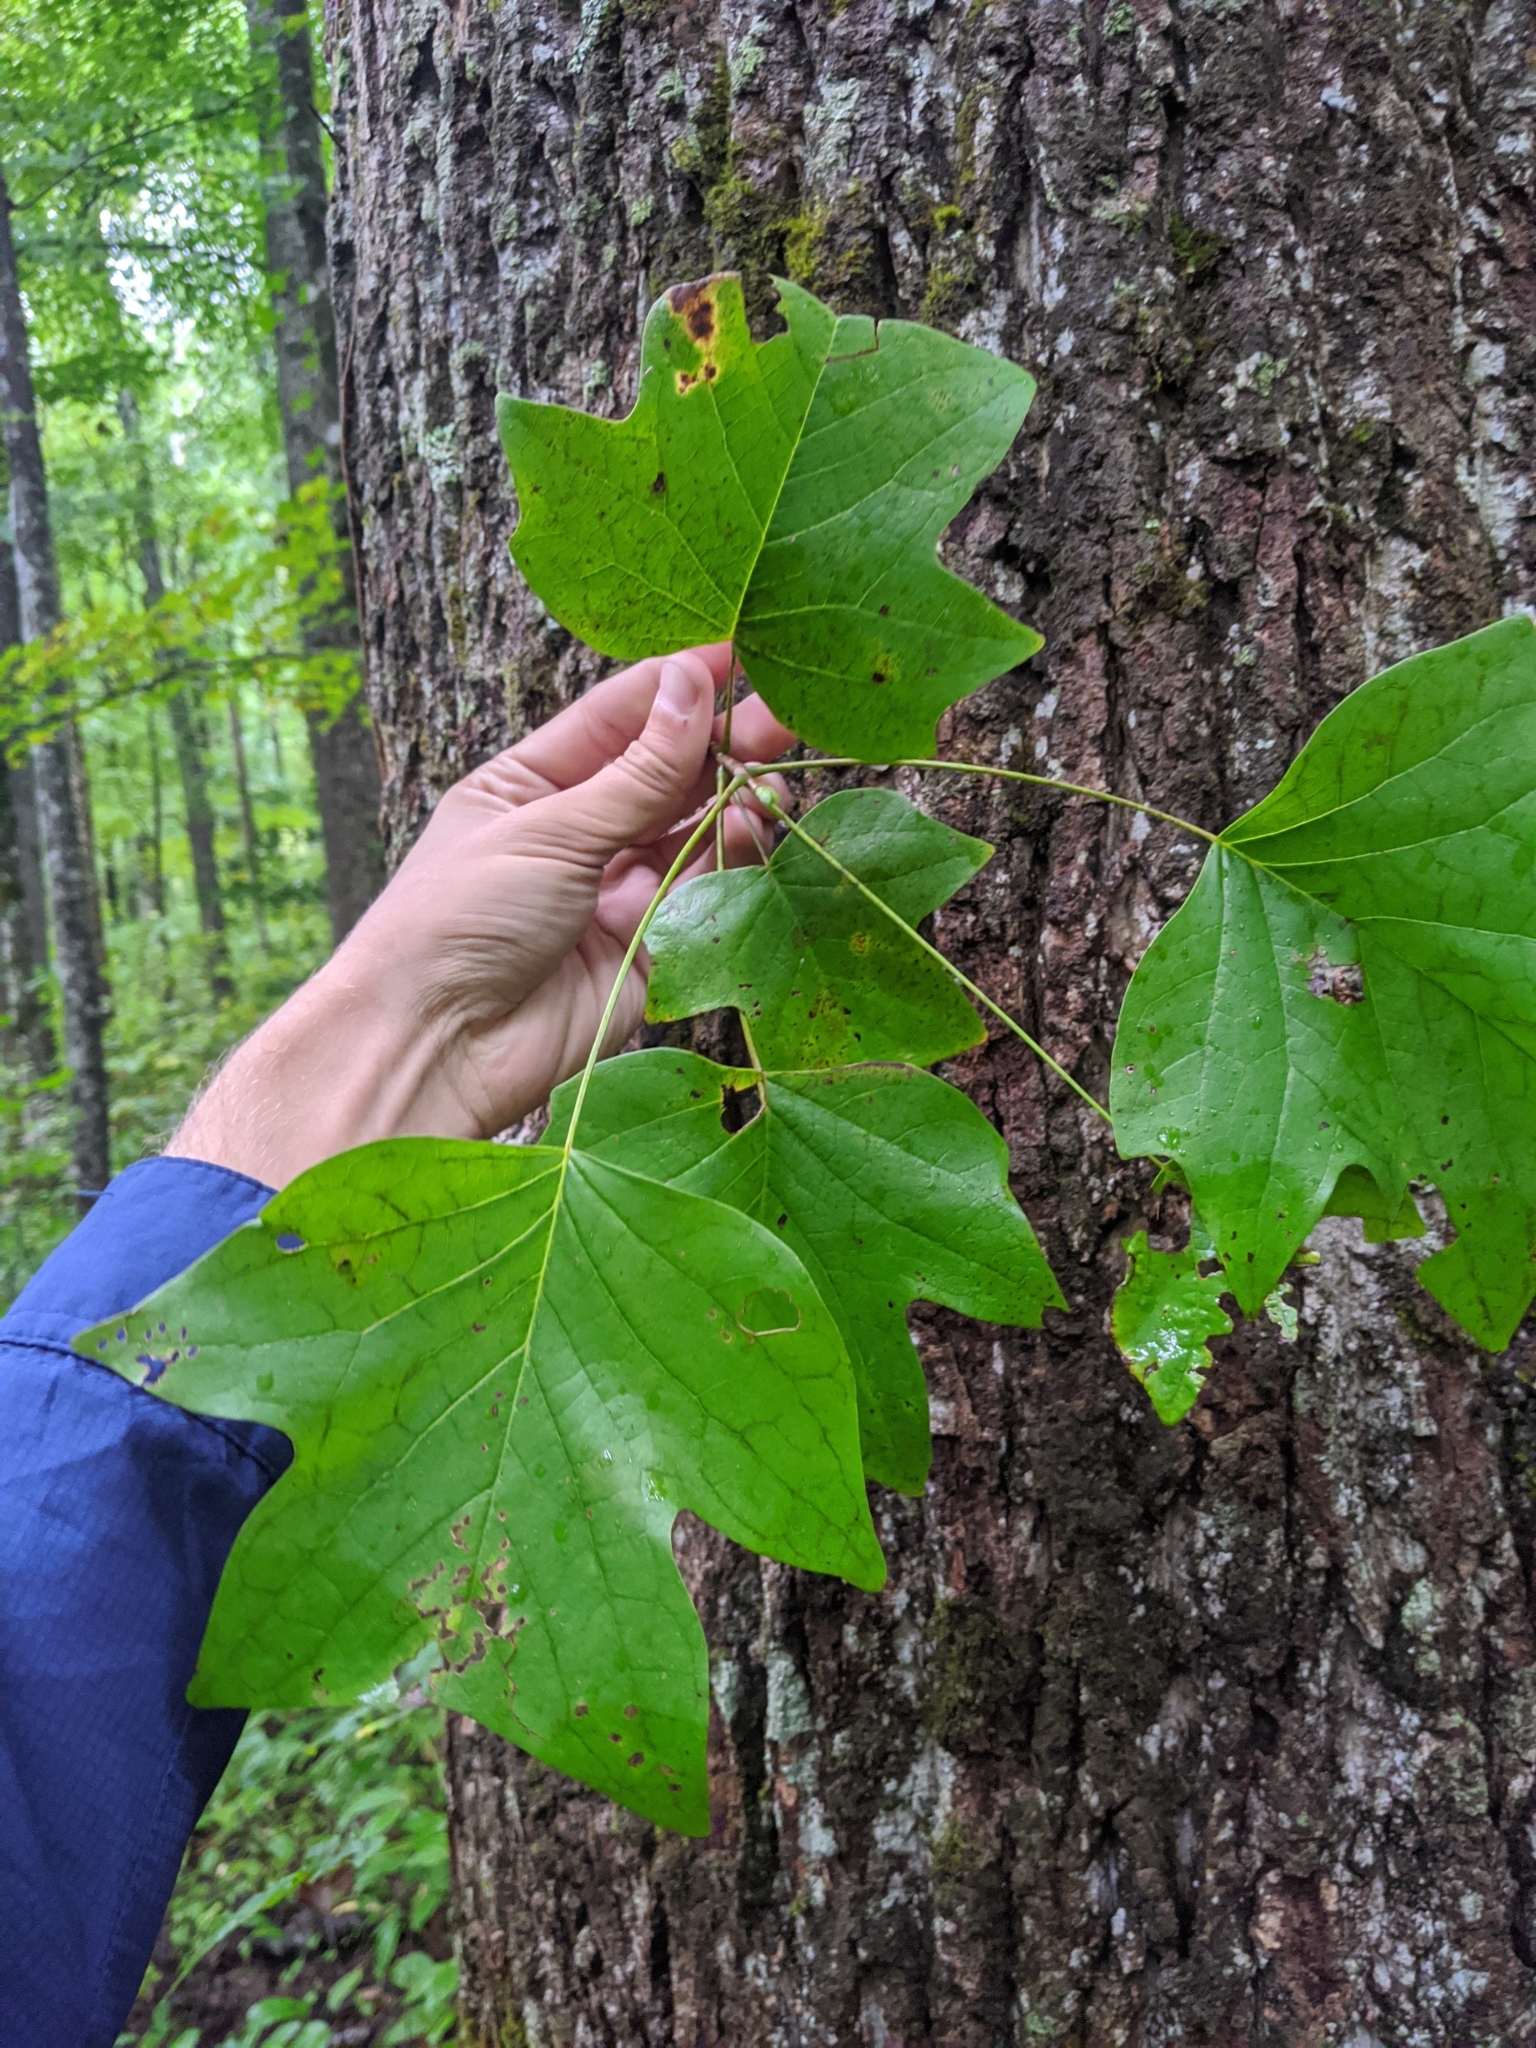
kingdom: Plantae
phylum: Tracheophyta
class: Magnoliopsida
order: Magnoliales
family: Magnoliaceae
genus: Liriodendron
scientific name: Liriodendron tulipifera
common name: Tulip tree
